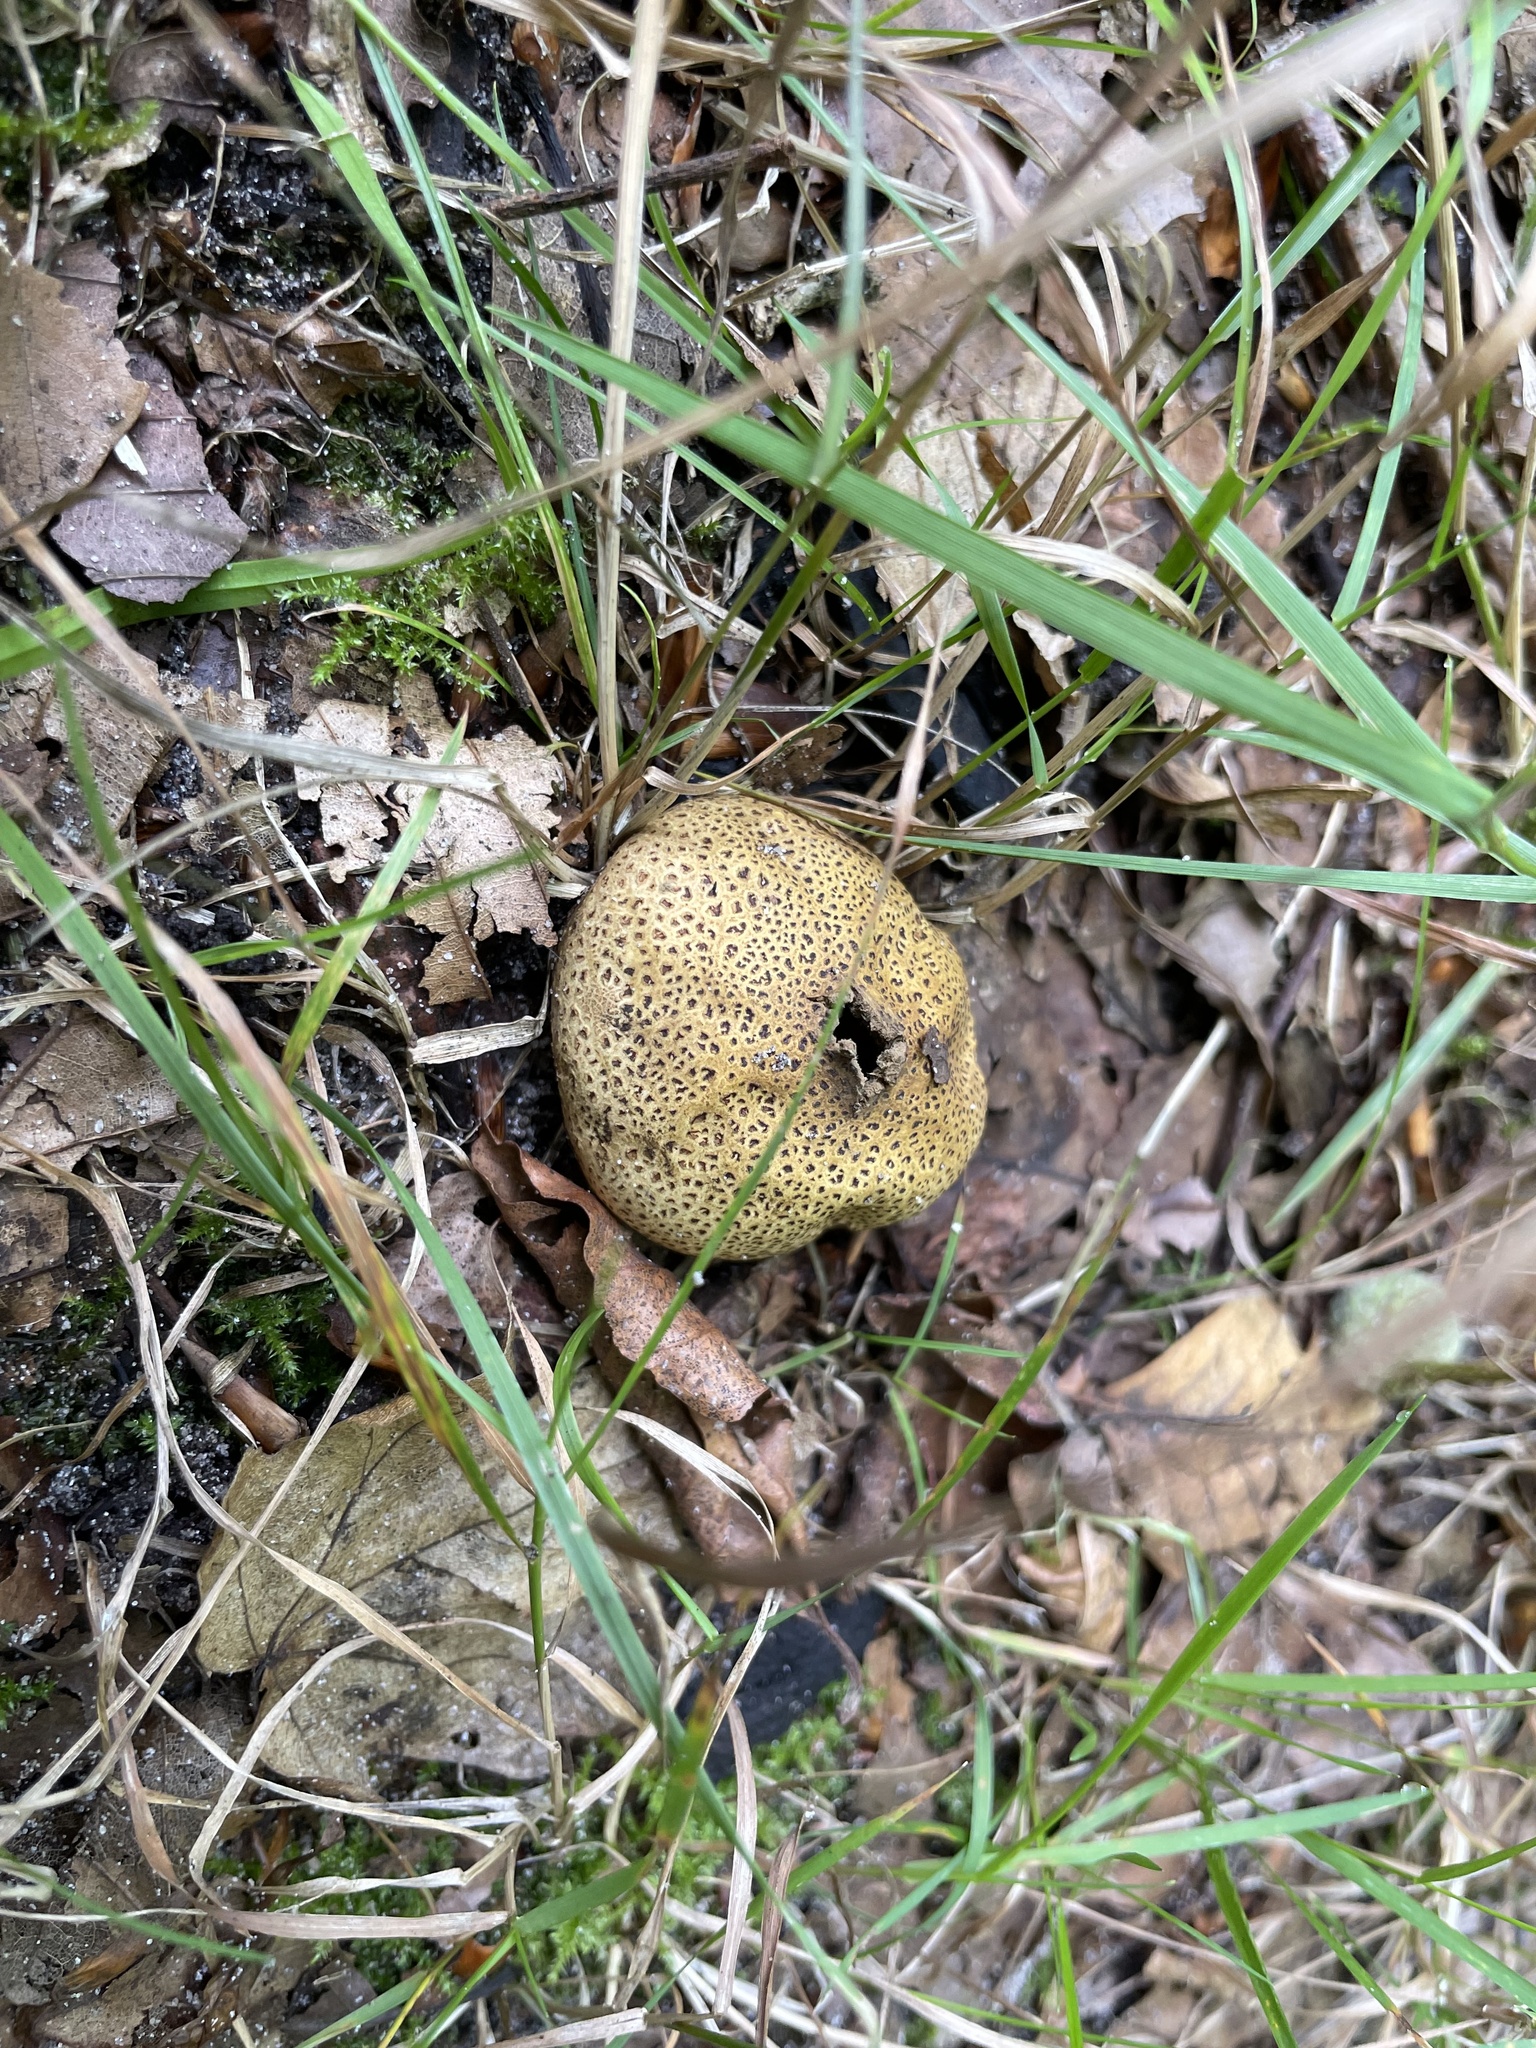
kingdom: Fungi
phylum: Basidiomycota
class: Agaricomycetes
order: Boletales
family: Sclerodermataceae
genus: Scleroderma
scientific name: Scleroderma citrinum
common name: Common earthball
